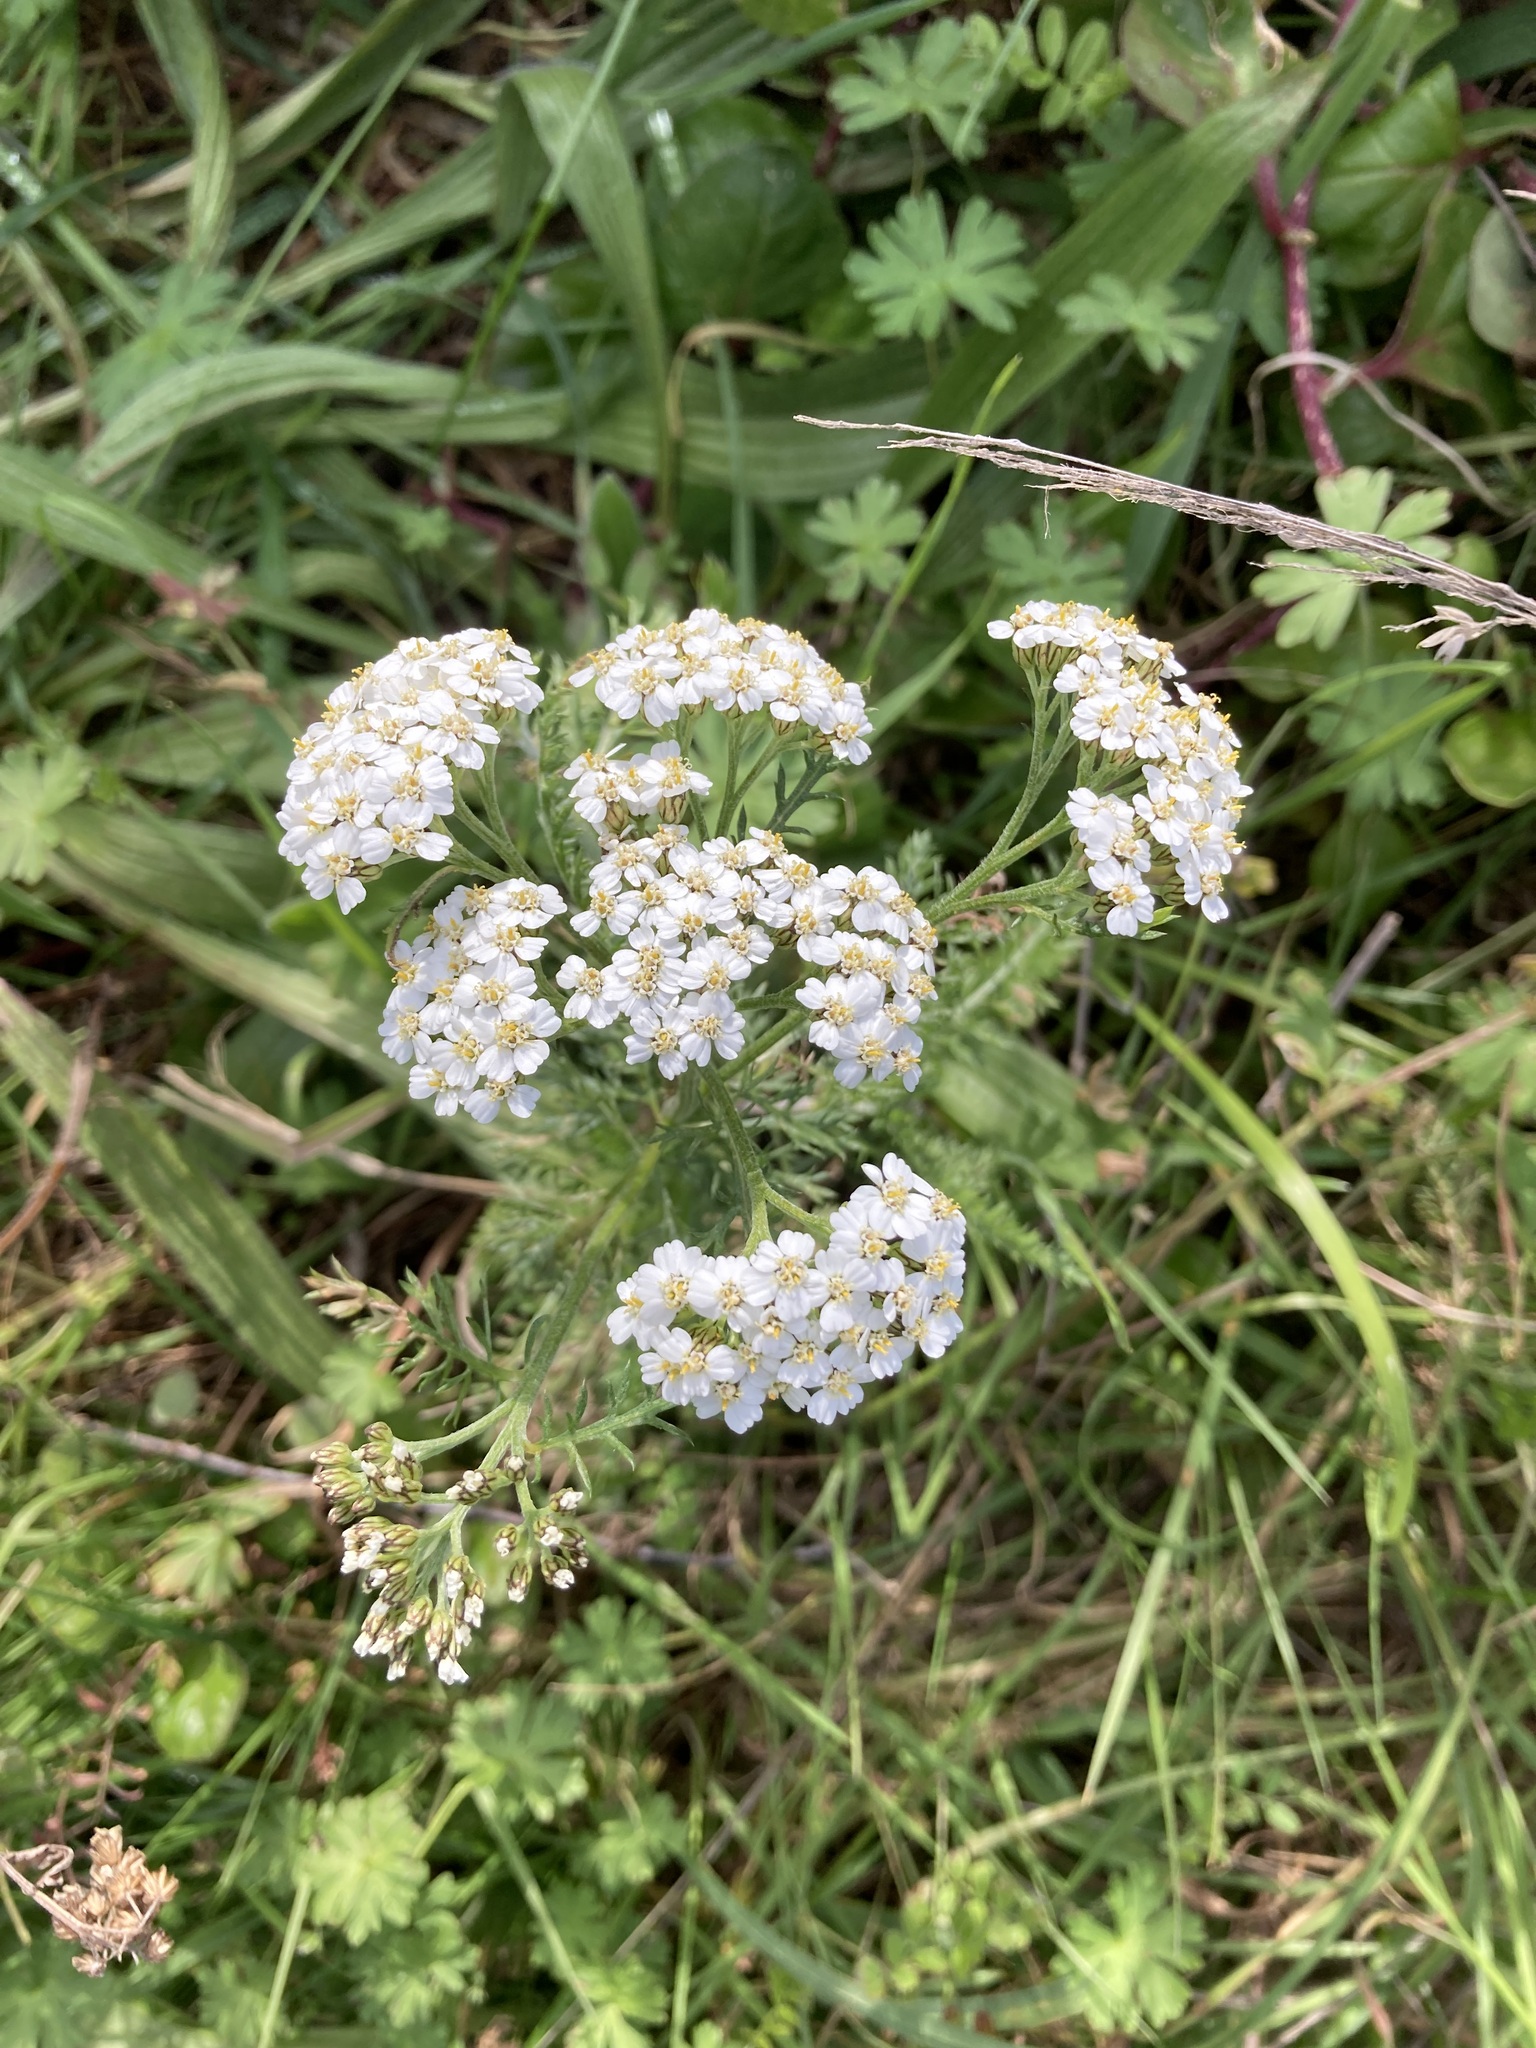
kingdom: Plantae
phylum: Tracheophyta
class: Magnoliopsida
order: Asterales
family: Asteraceae
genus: Achillea
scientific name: Achillea millefolium
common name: Yarrow
